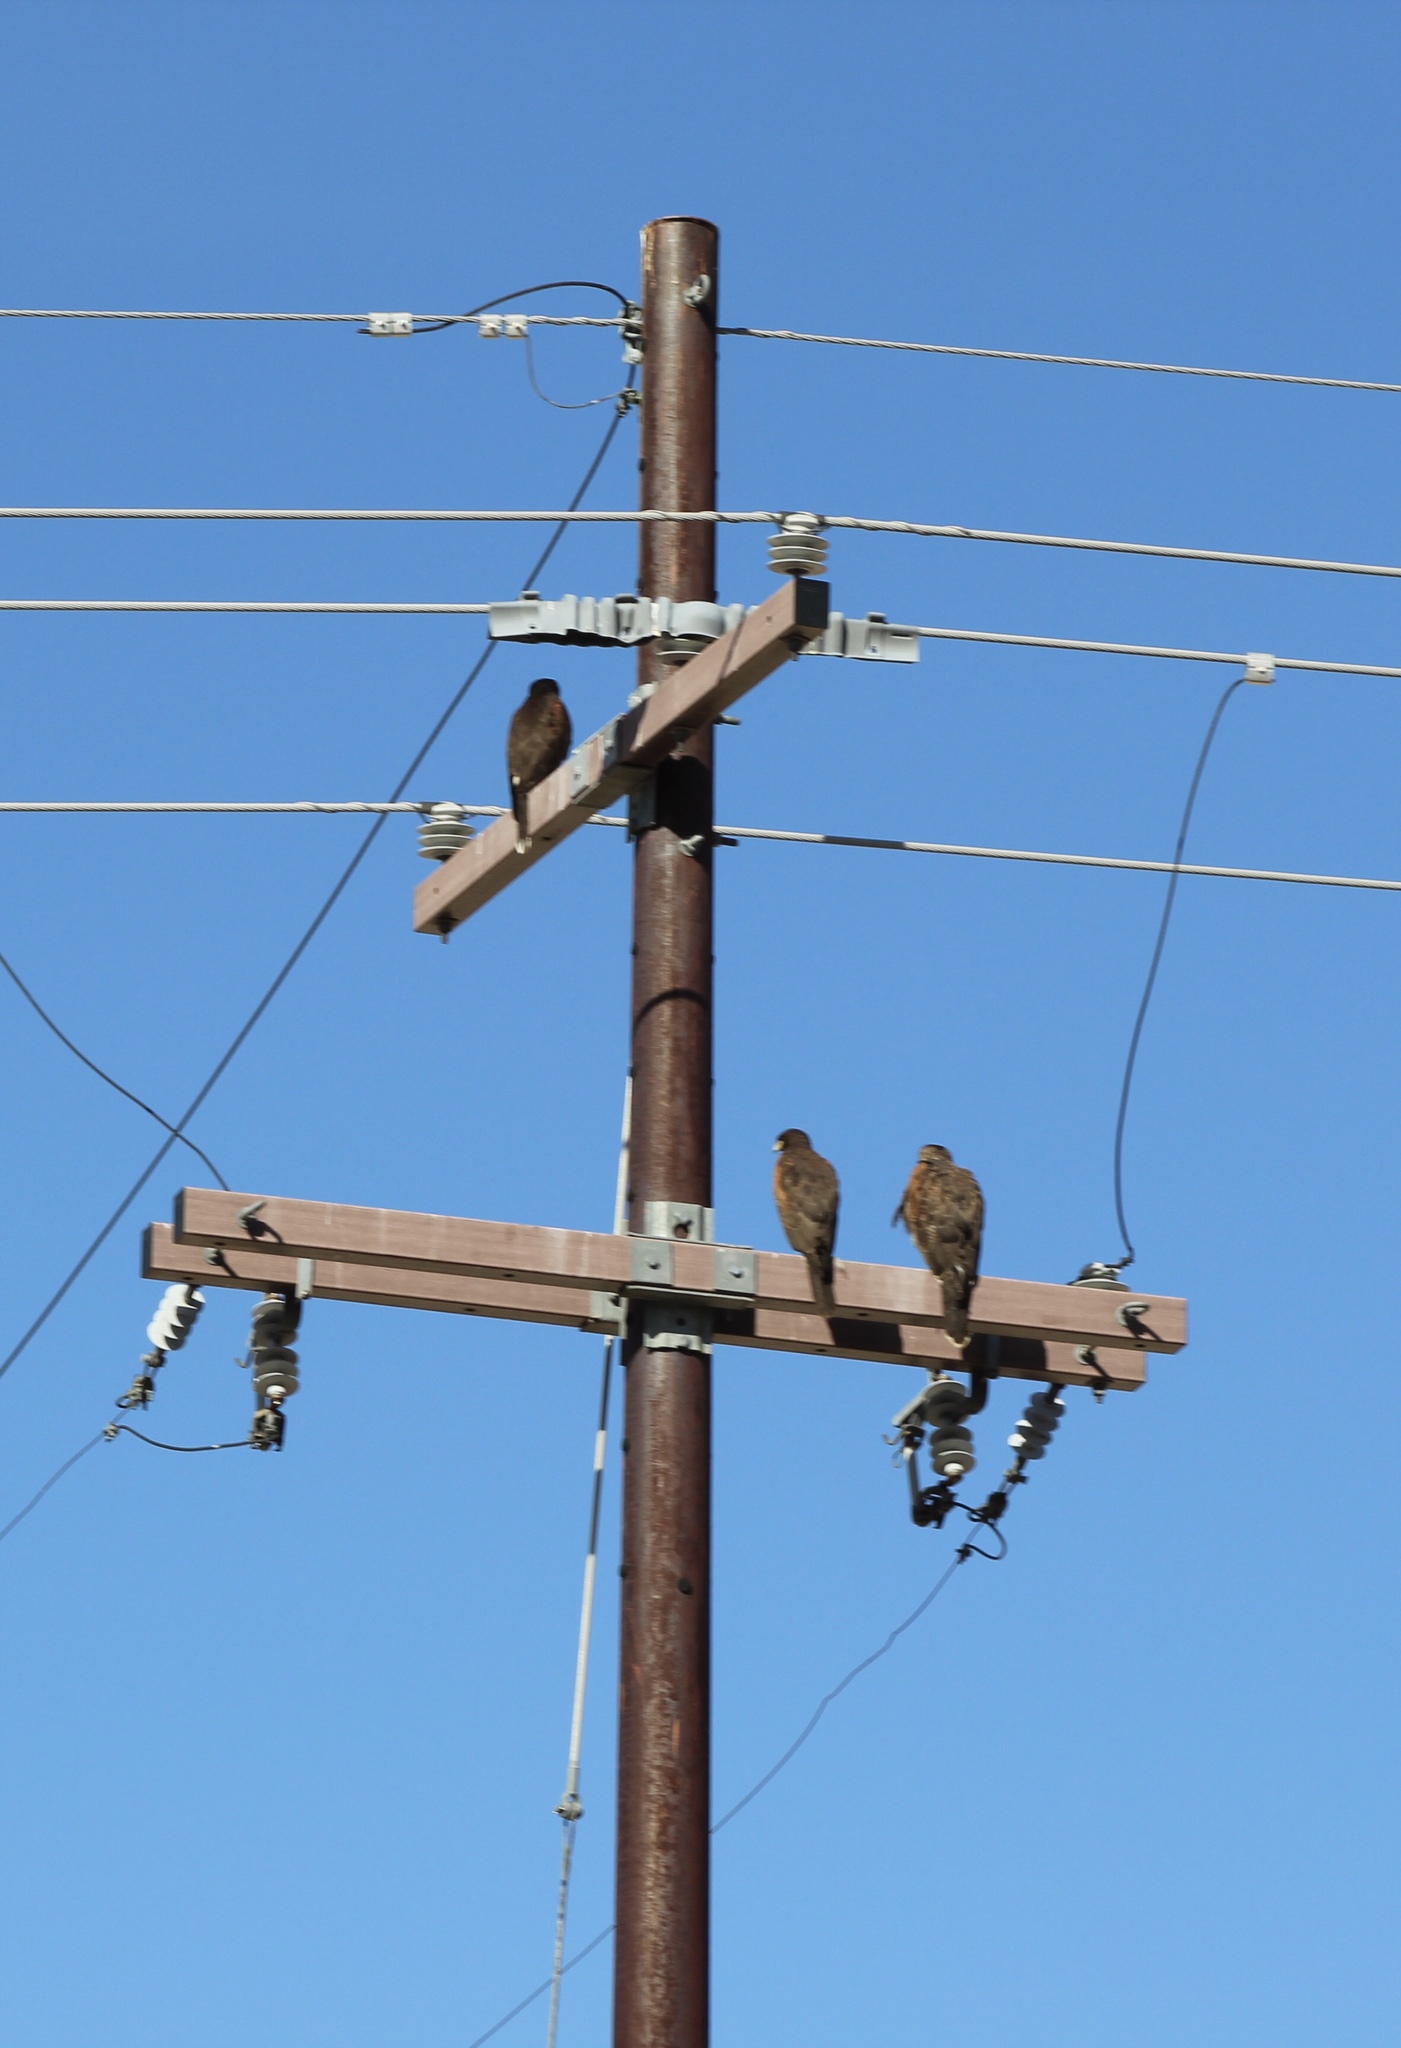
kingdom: Animalia
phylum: Chordata
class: Aves
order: Accipitriformes
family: Accipitridae
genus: Parabuteo
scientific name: Parabuteo unicinctus
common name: Harris's hawk
